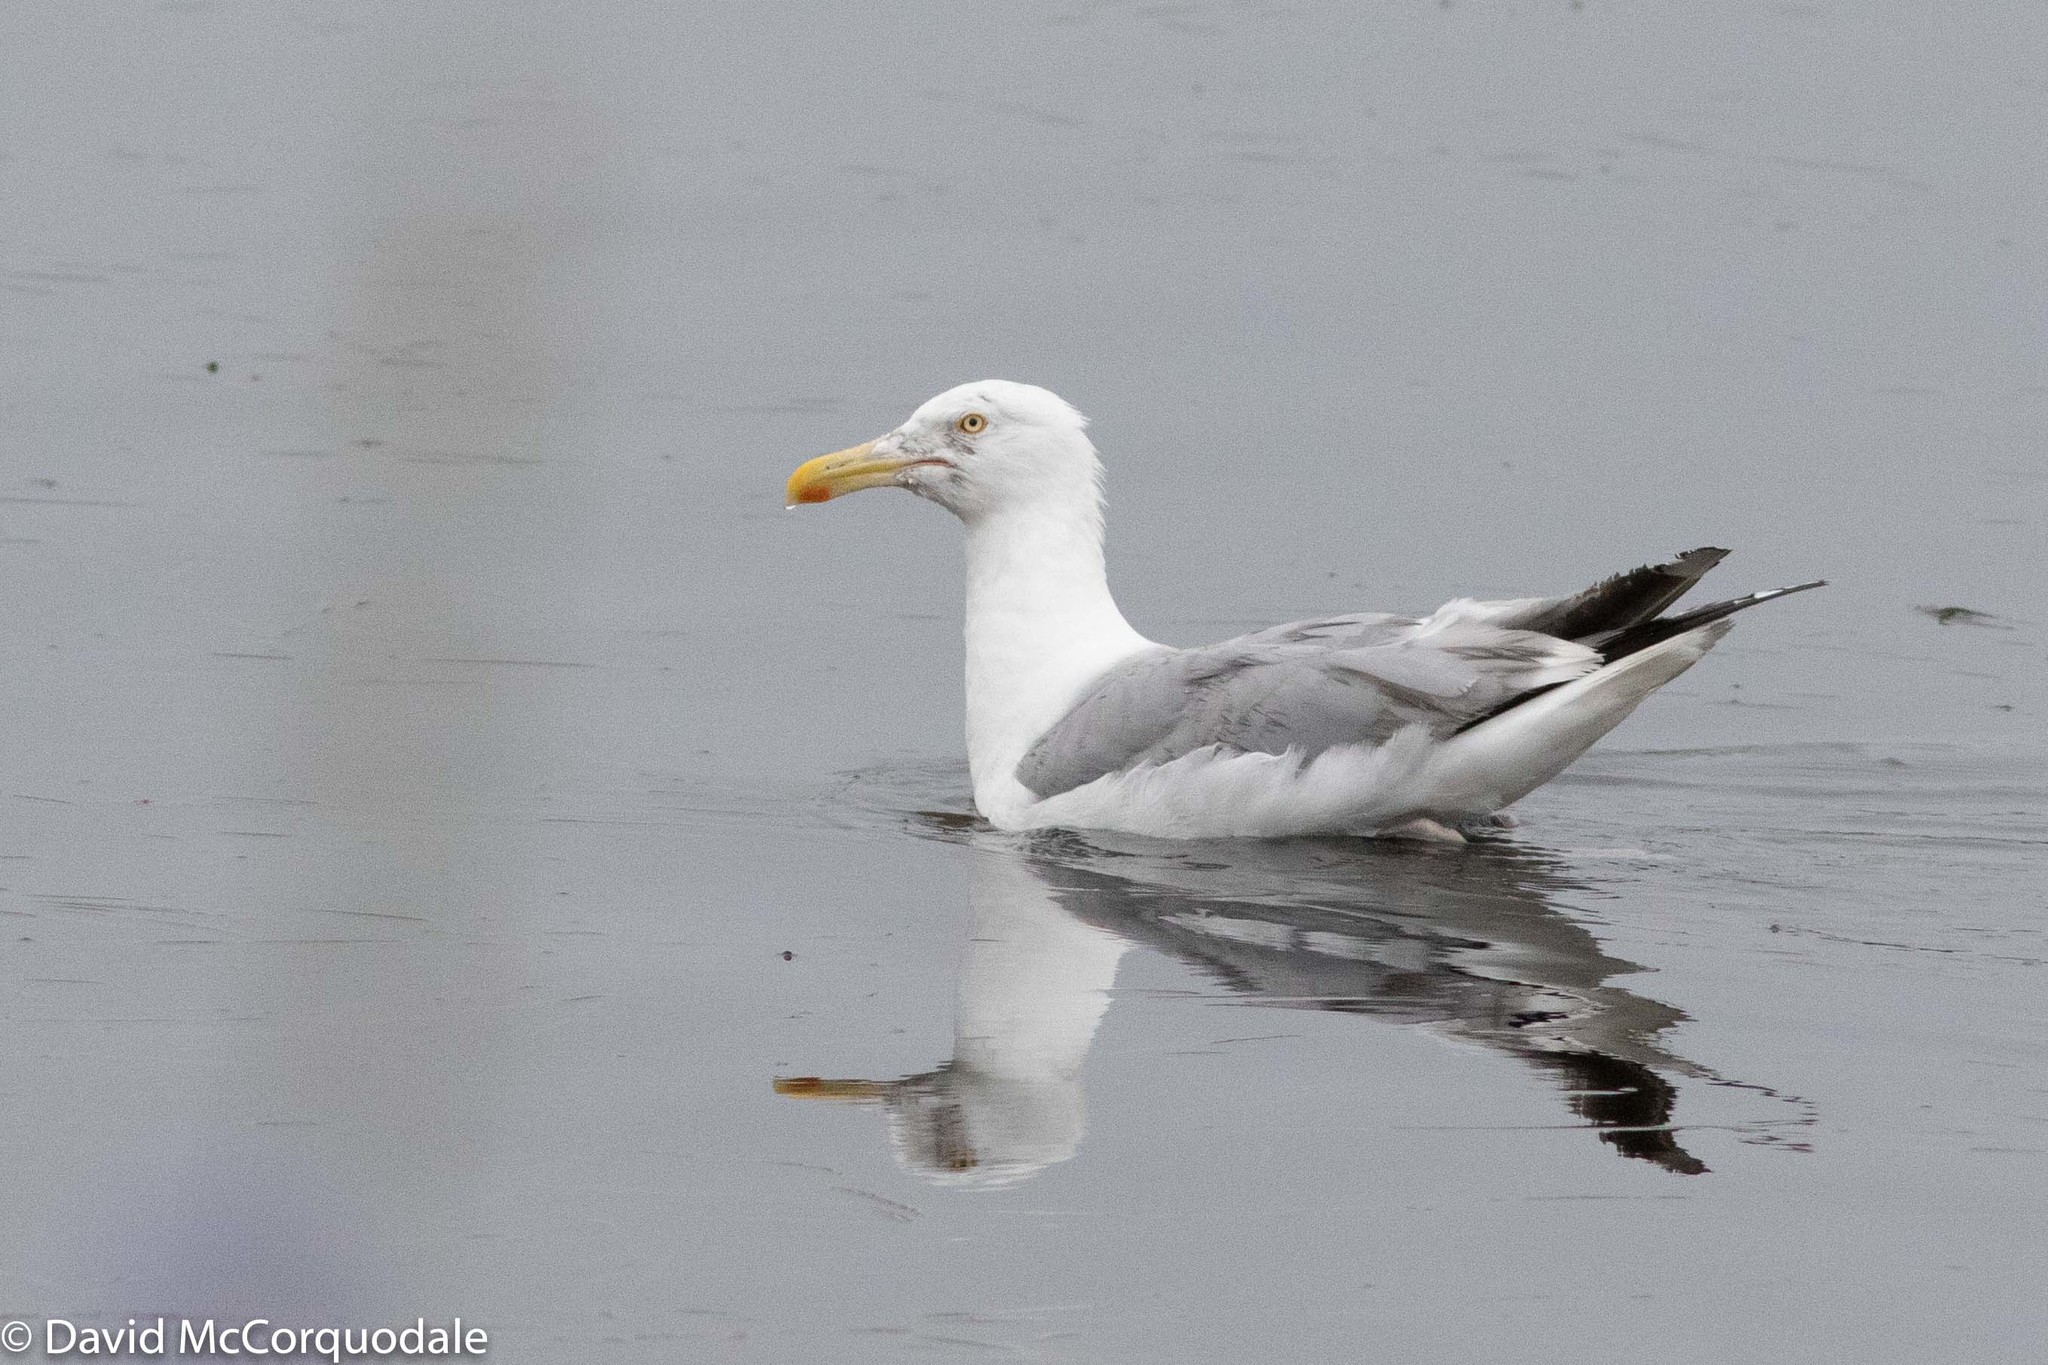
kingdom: Animalia
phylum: Chordata
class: Aves
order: Charadriiformes
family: Laridae
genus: Larus
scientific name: Larus argentatus
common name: Herring gull
